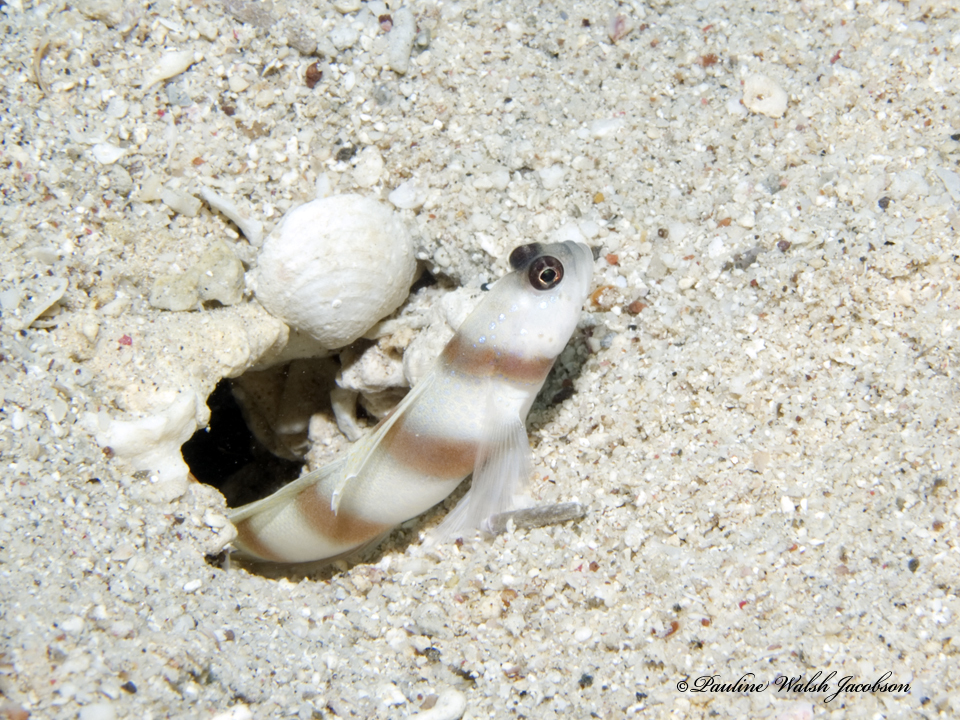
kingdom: Animalia
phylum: Chordata
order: Perciformes
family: Gobiidae
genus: Amblyeleotris
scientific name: Amblyeleotris steinitzi
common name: Steinitz' prawn-goby
